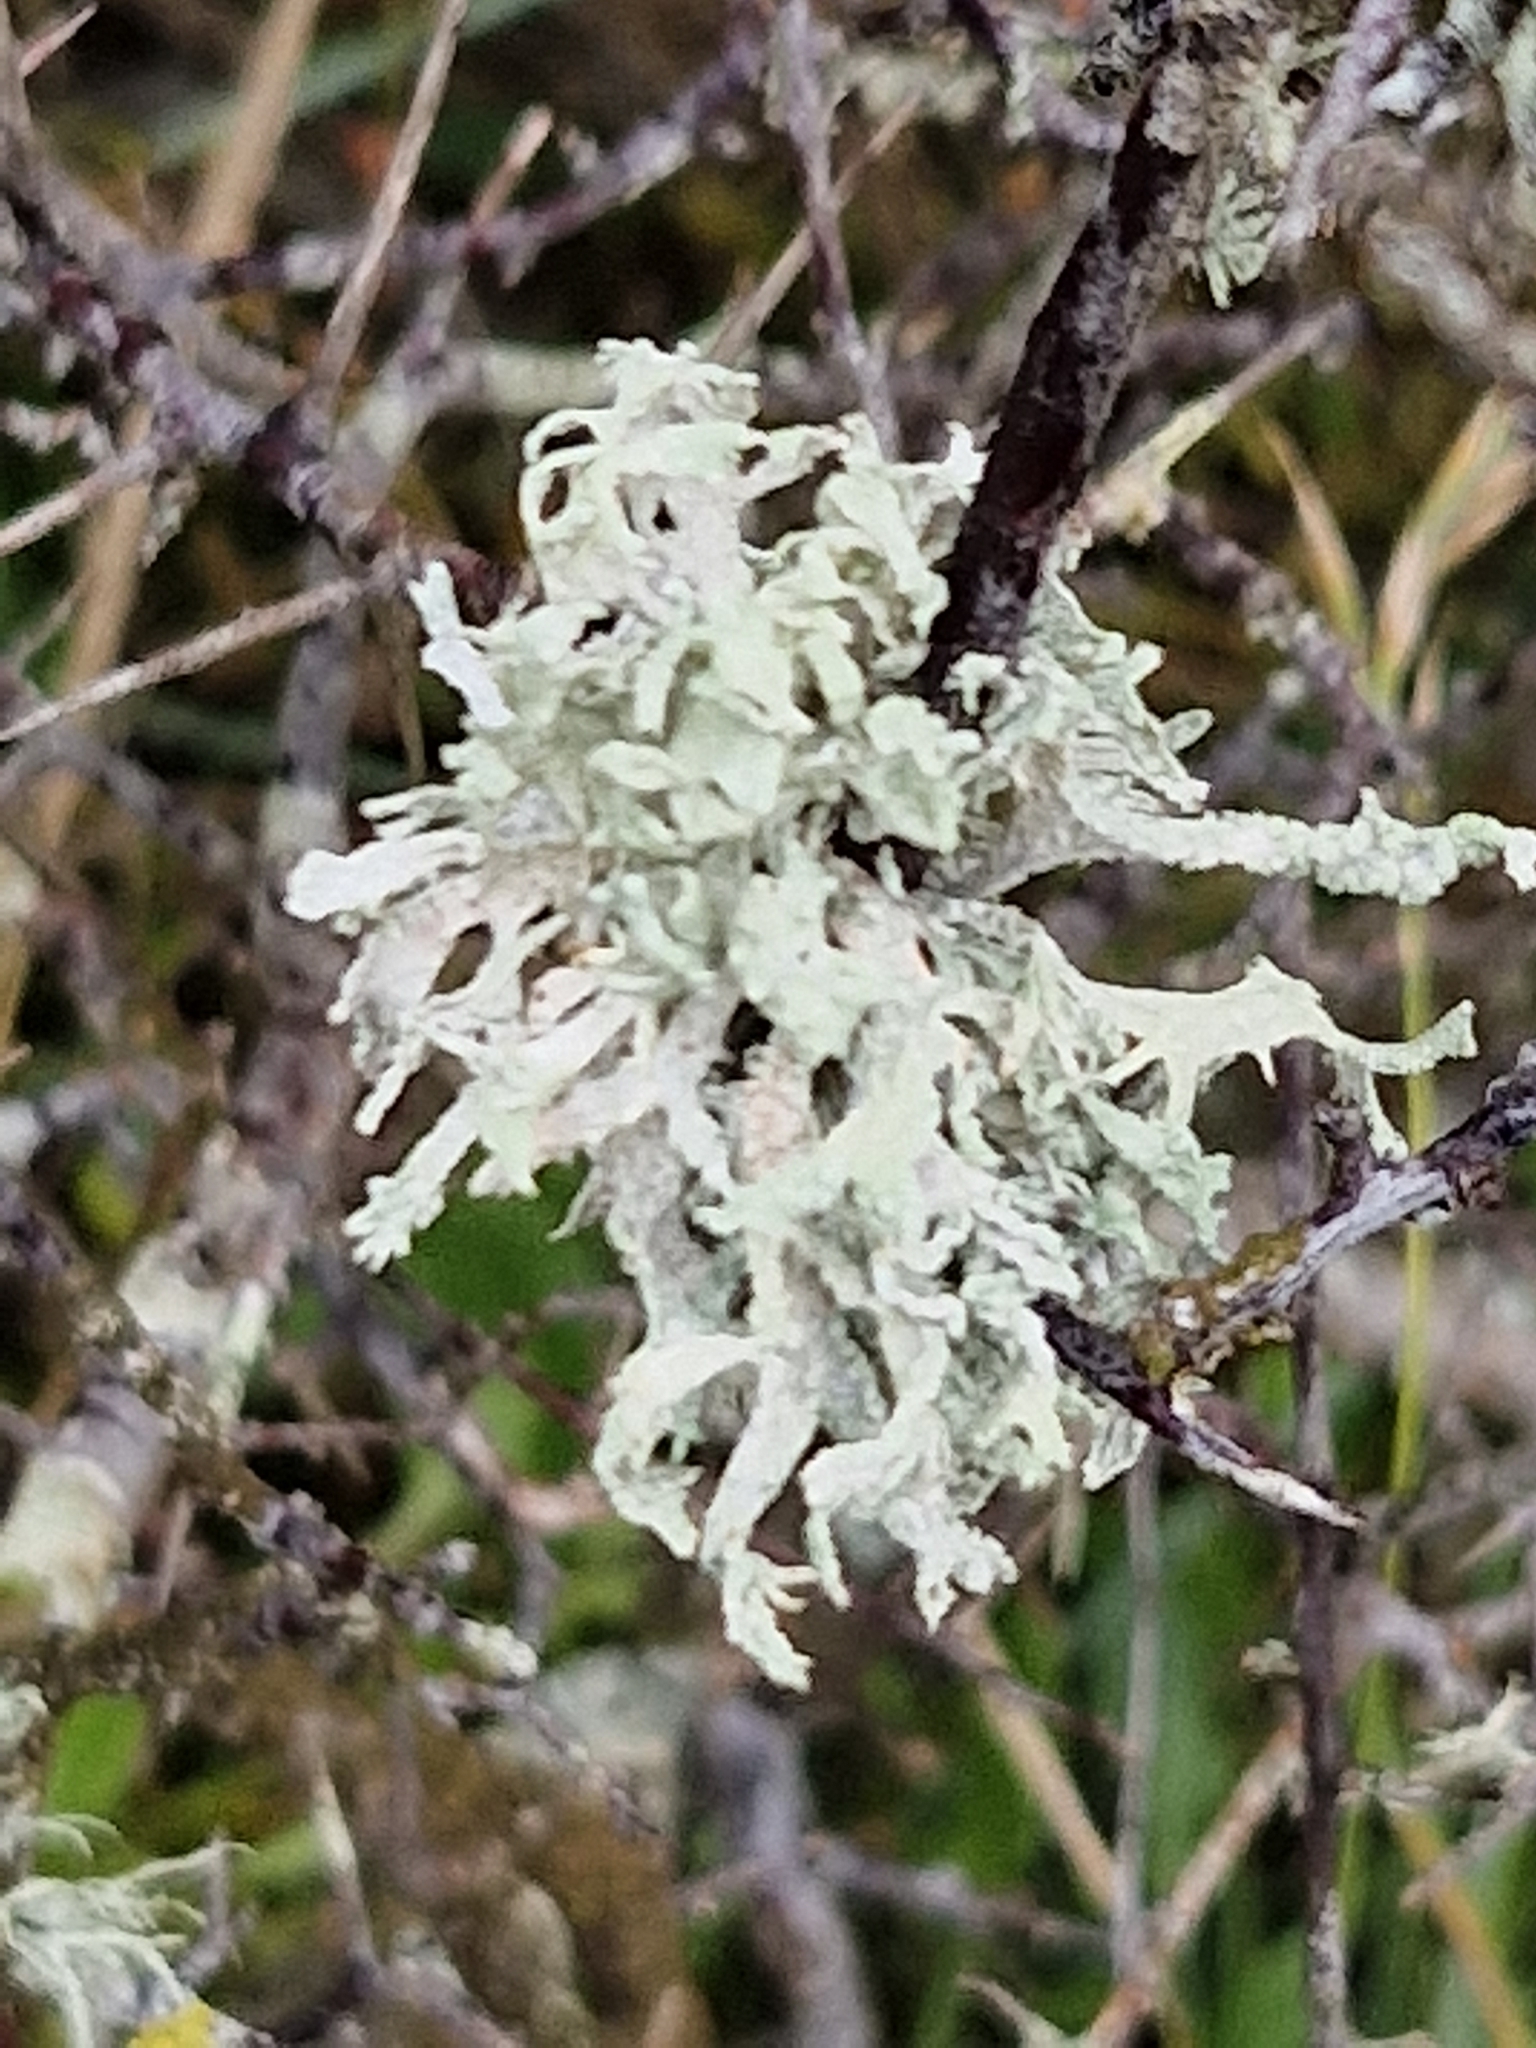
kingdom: Fungi
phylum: Ascomycota
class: Lecanoromycetes
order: Lecanorales
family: Parmeliaceae
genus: Evernia
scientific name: Evernia prunastri
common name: Oak moss
